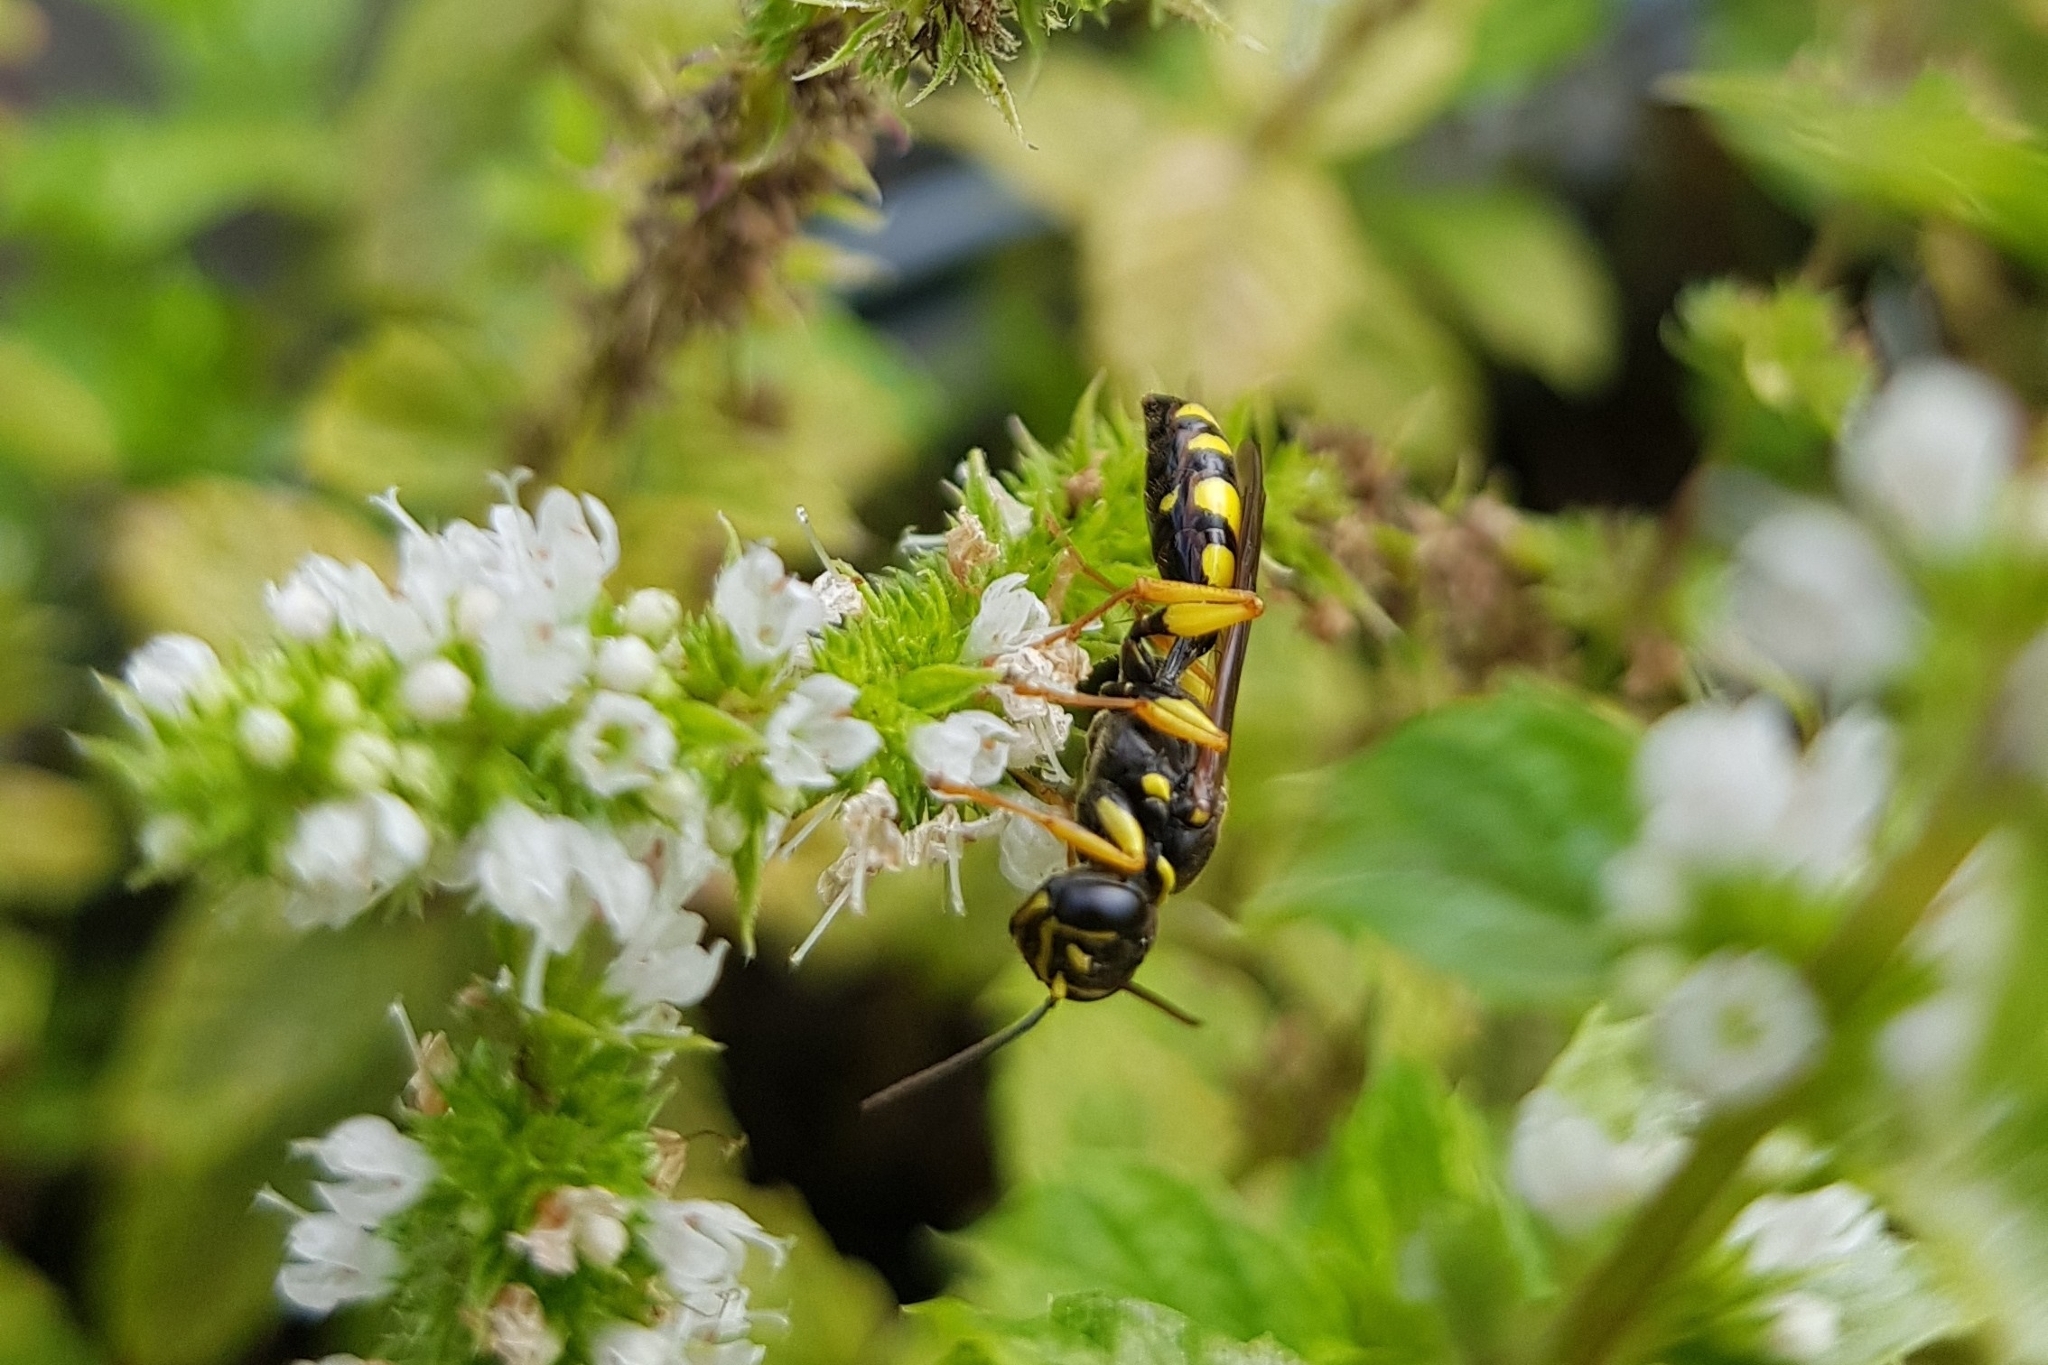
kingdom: Animalia
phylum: Arthropoda
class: Insecta
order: Hymenoptera
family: Crabronidae
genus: Mellinus
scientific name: Mellinus arvensis
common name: Field digger wasp
